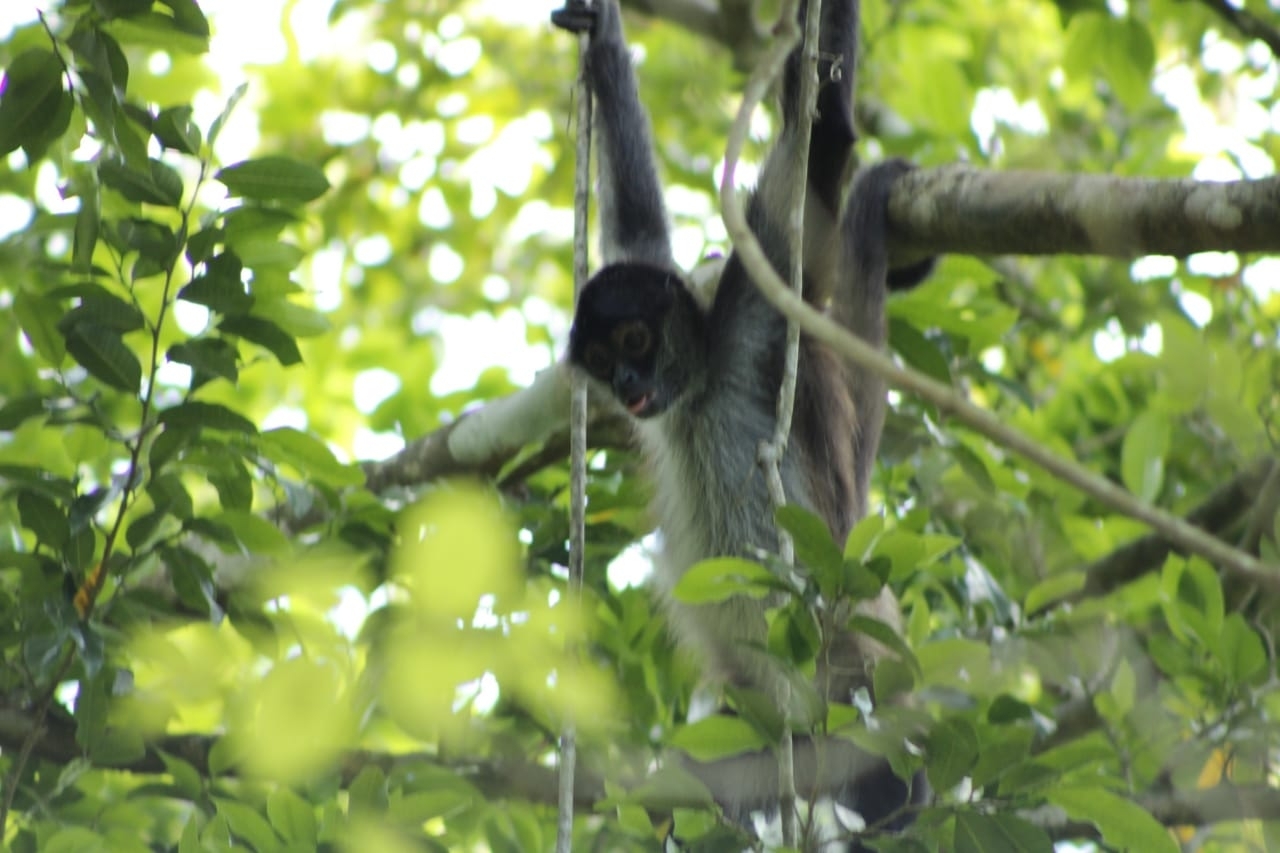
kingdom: Animalia
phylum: Chordata
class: Mammalia
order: Primates
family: Atelidae
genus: Ateles
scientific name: Ateles geoffroyi
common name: Black-handed spider monkey
